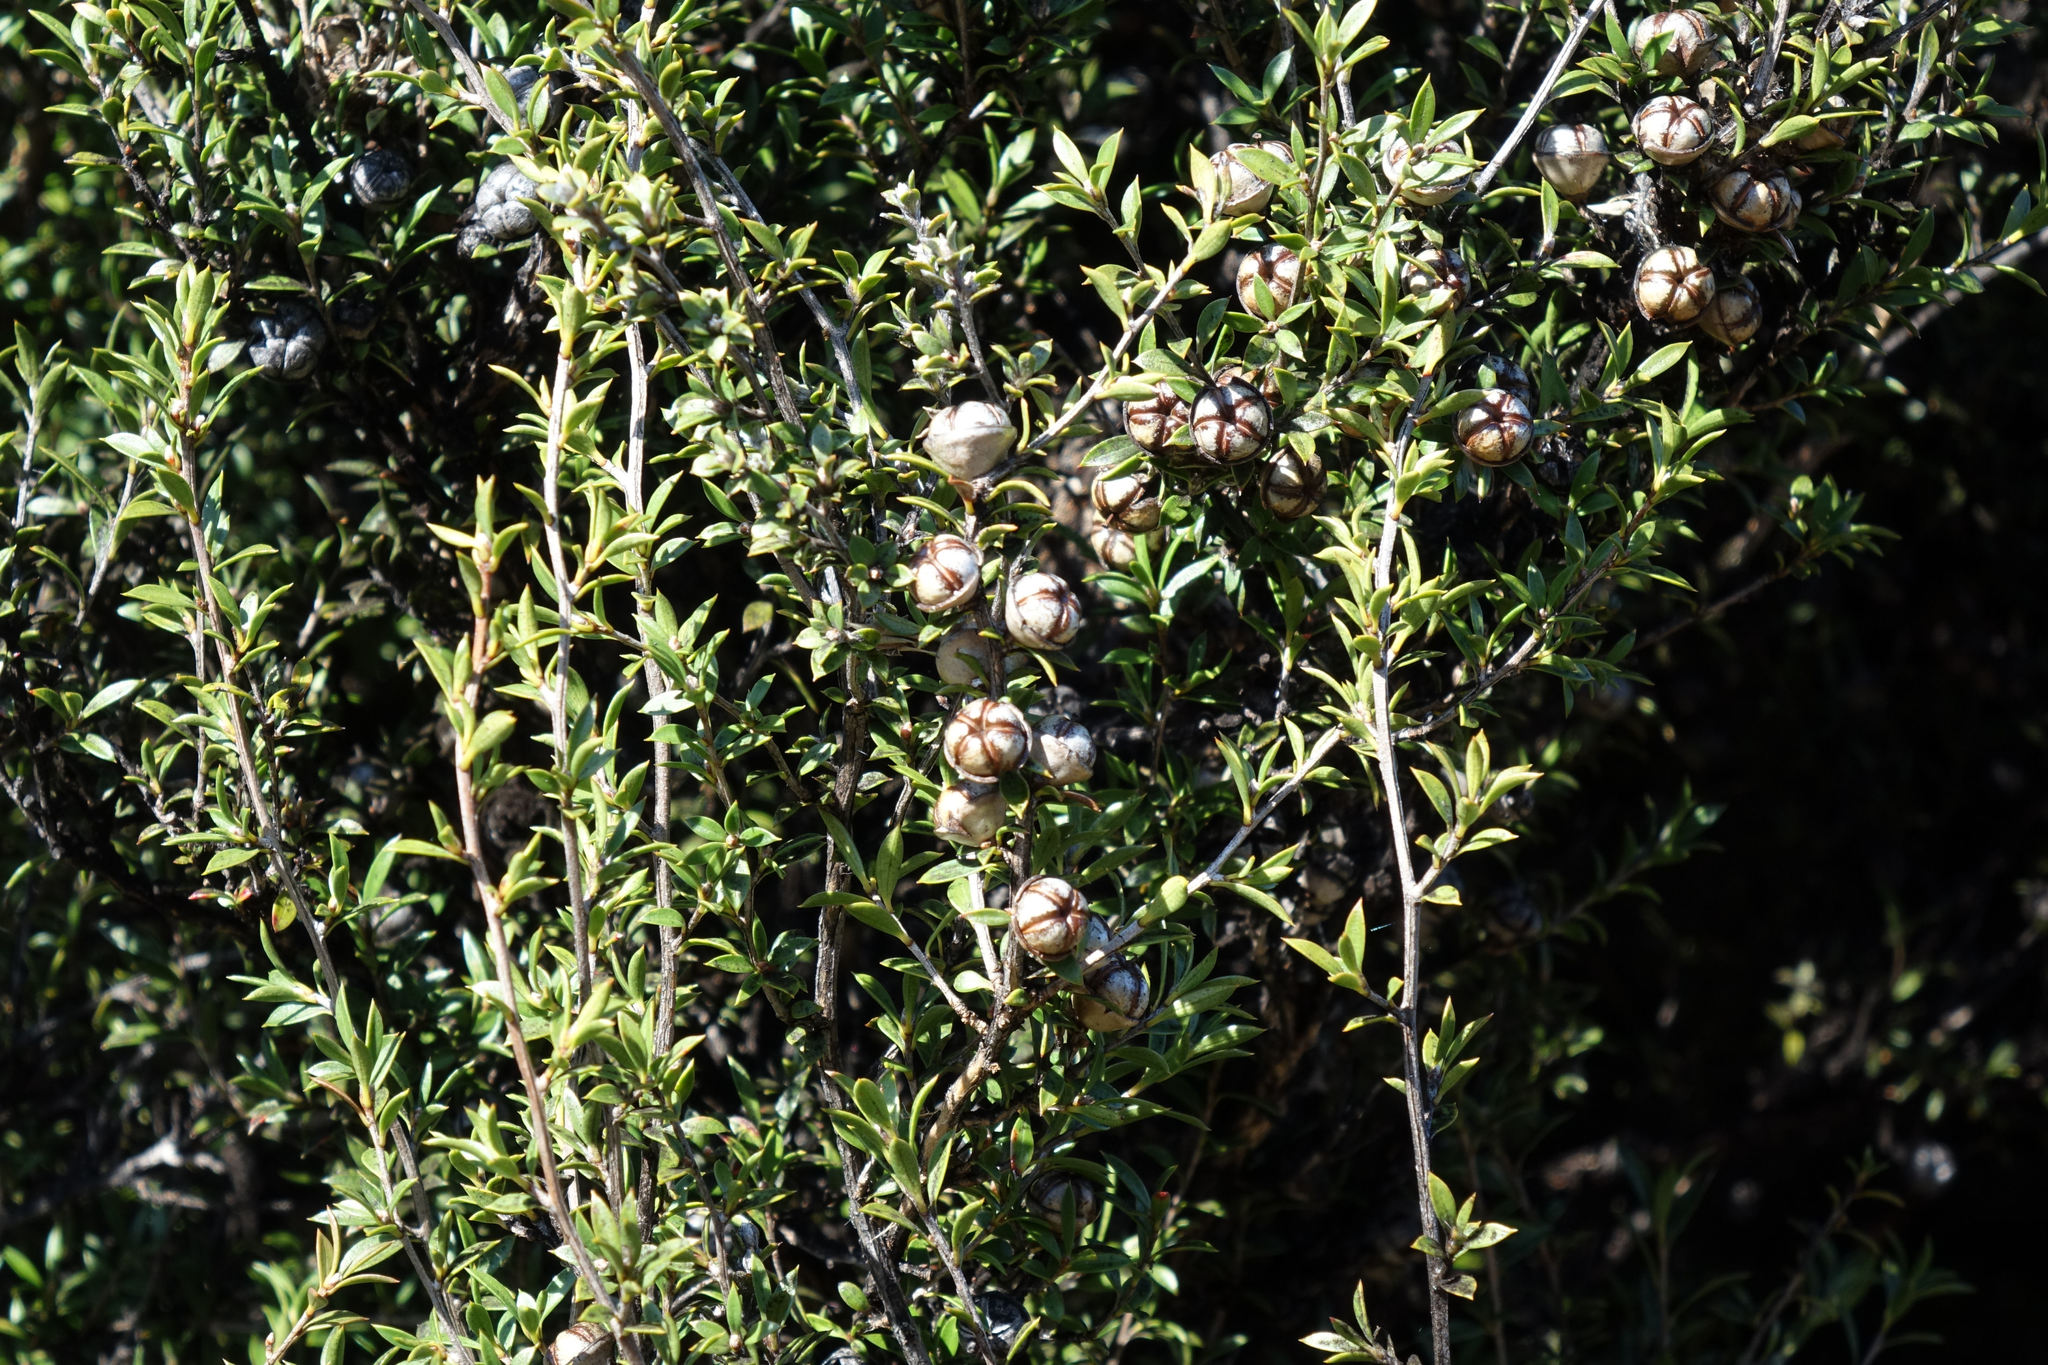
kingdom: Plantae
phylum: Tracheophyta
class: Magnoliopsida
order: Myrtales
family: Myrtaceae
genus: Leptospermum
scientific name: Leptospermum scoparium
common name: Broom tea-tree
